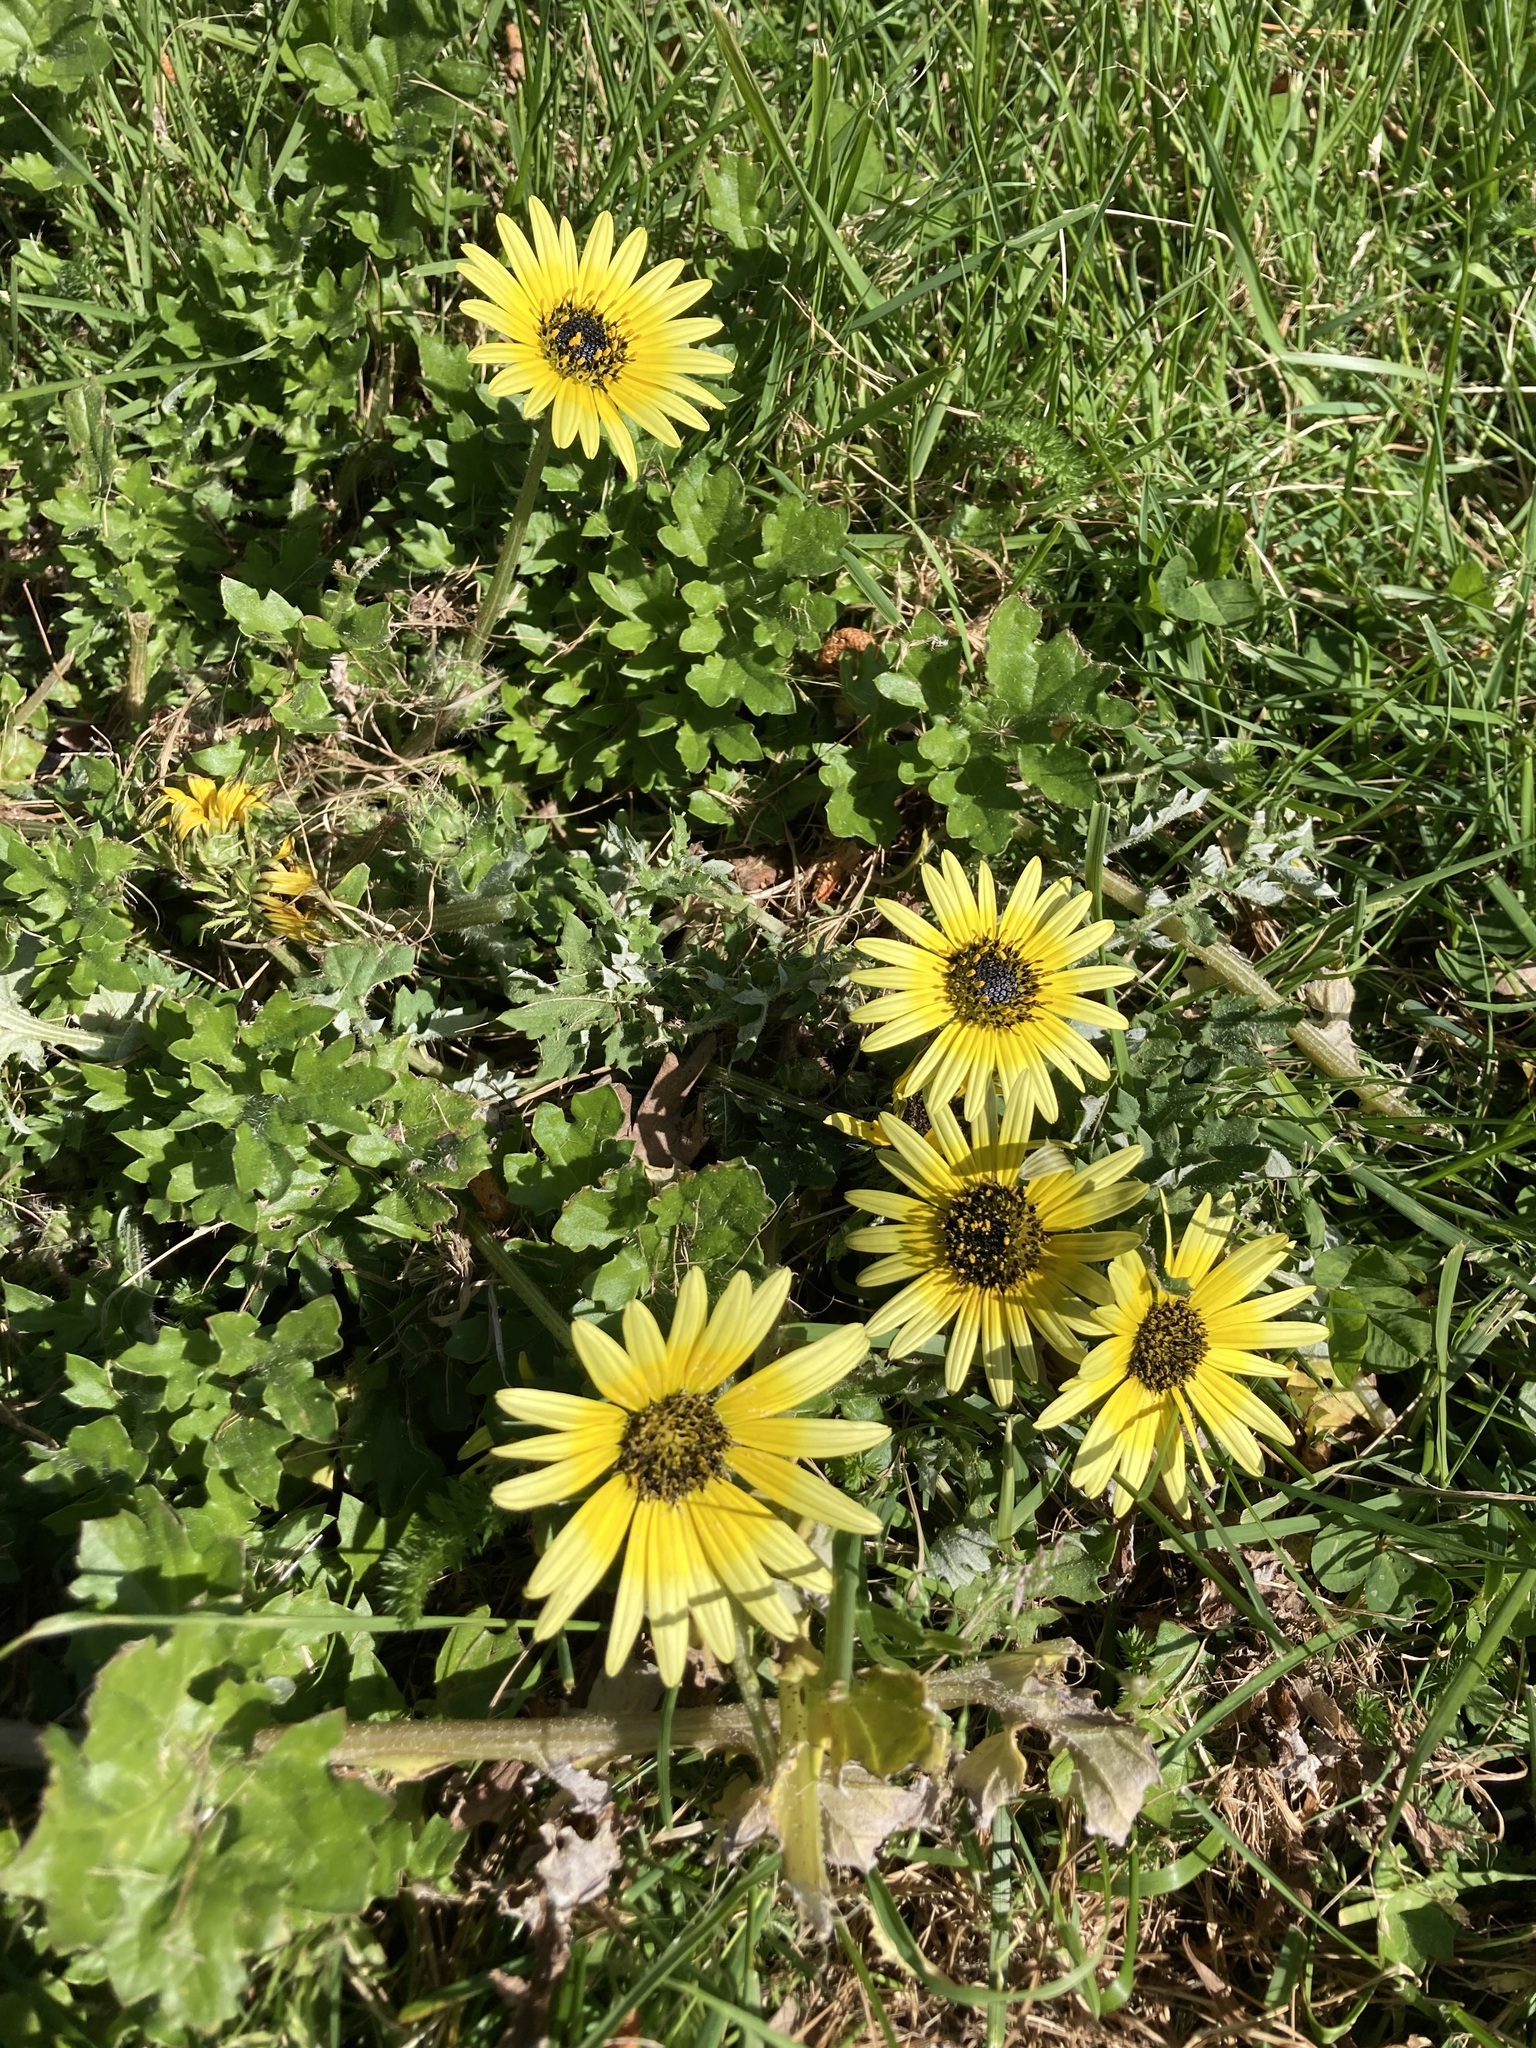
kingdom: Plantae
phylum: Tracheophyta
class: Magnoliopsida
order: Asterales
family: Asteraceae
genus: Arctotheca
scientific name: Arctotheca calendula
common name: Capeweed
